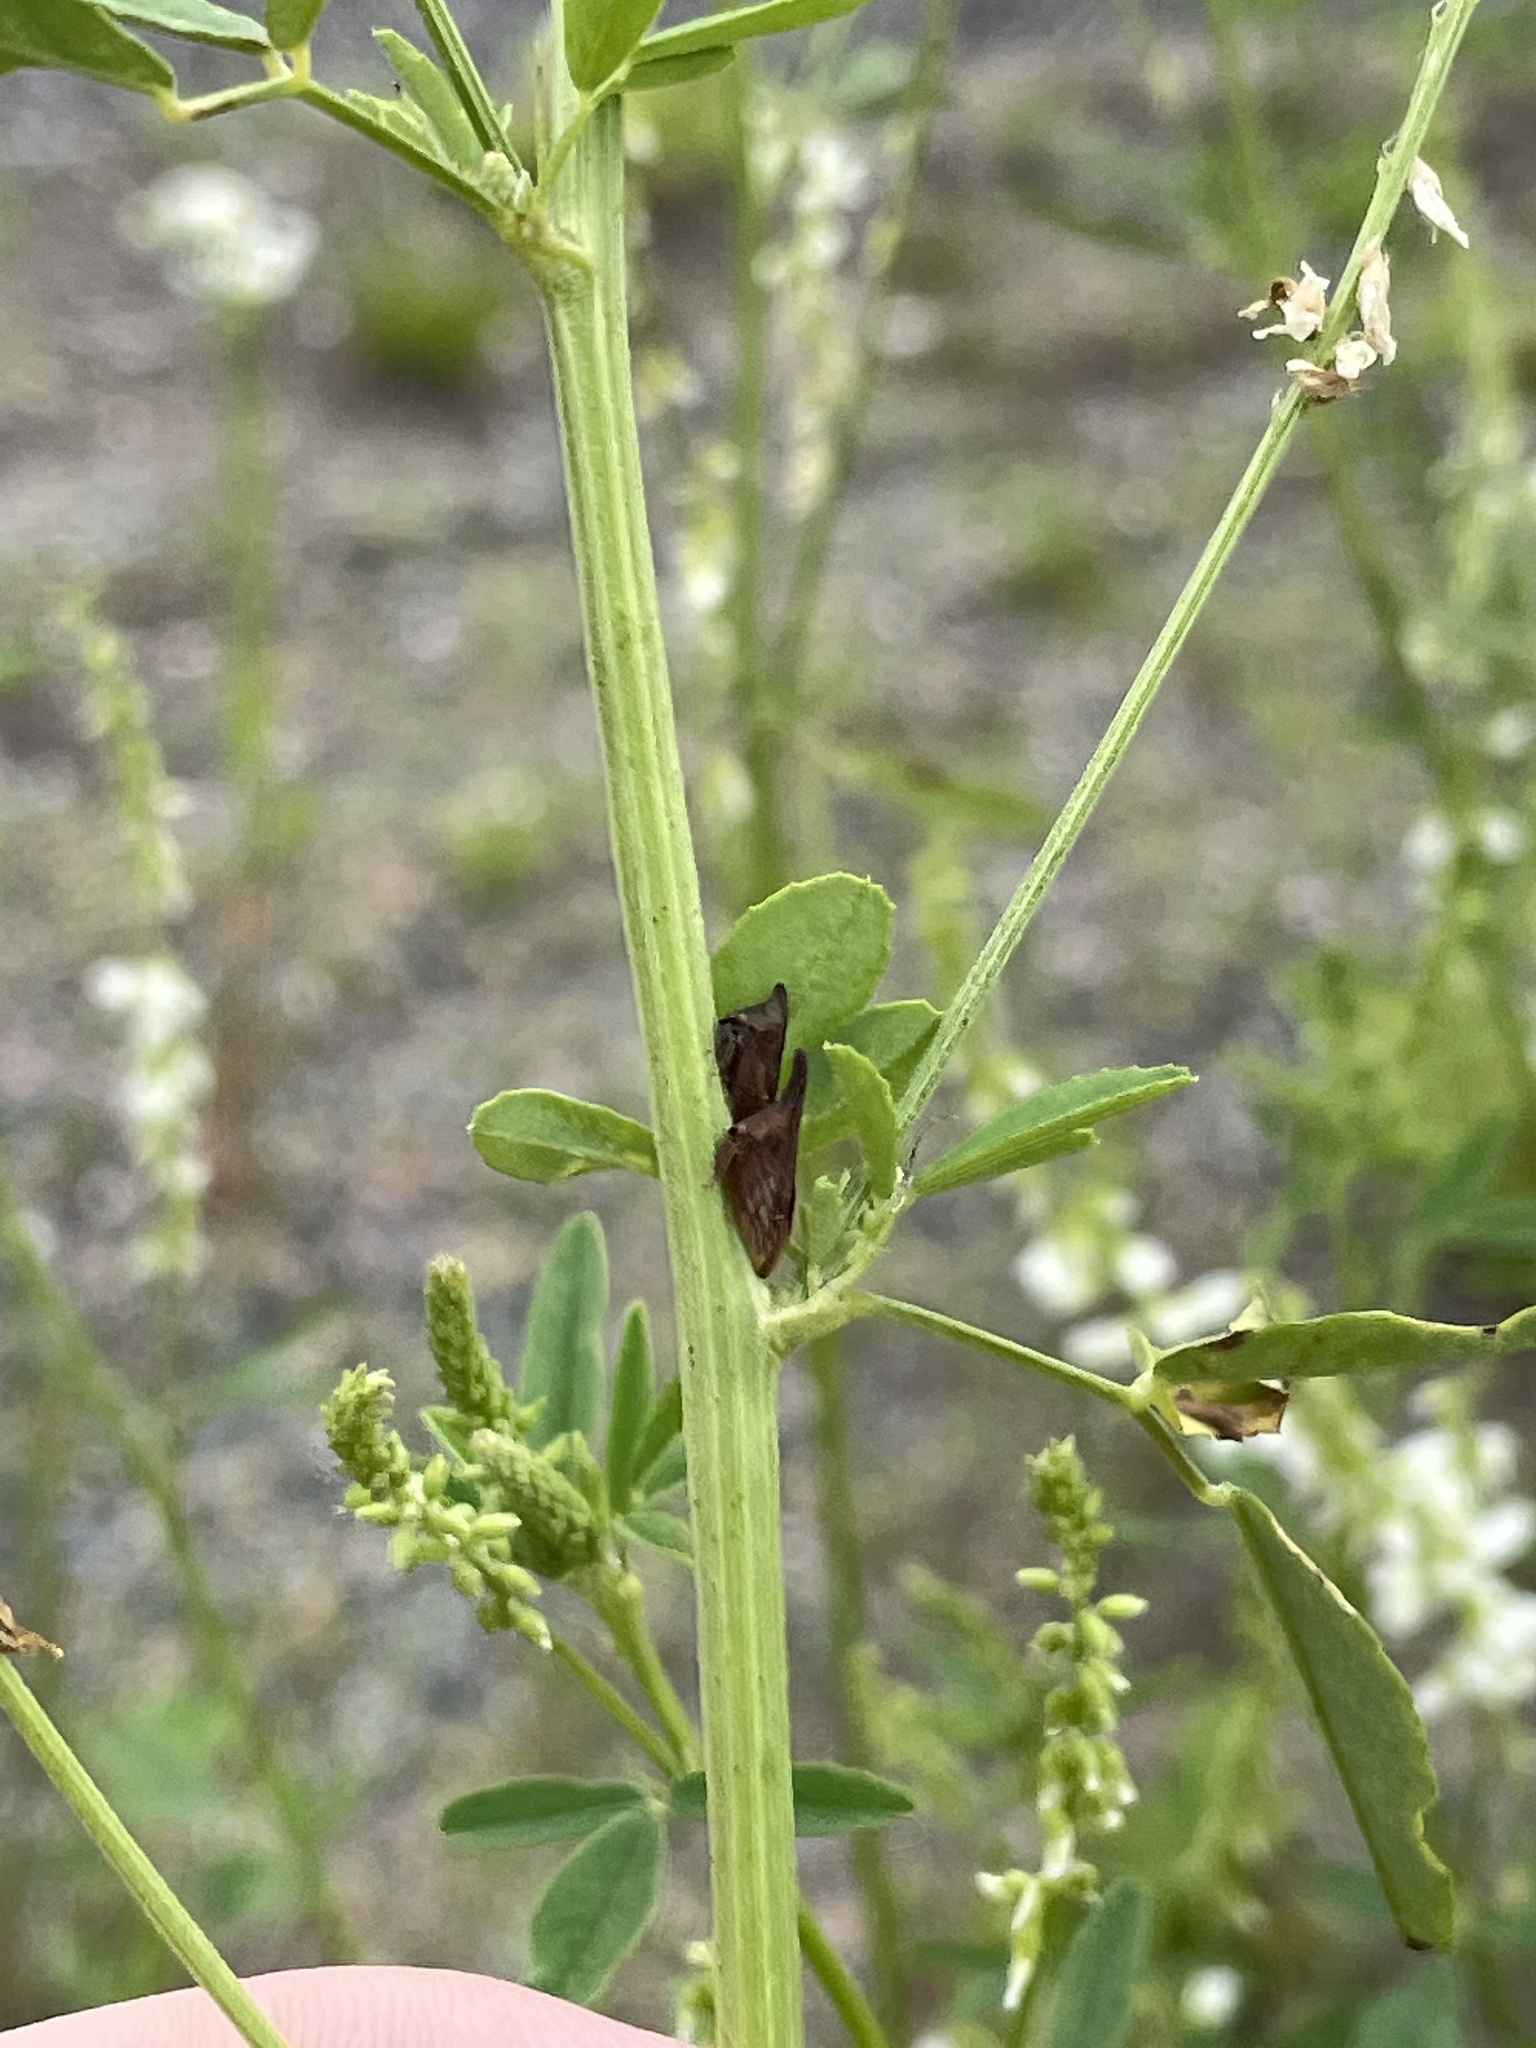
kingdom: Animalia
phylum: Arthropoda
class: Insecta
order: Hemiptera
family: Membracidae
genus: Enchenopa
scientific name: Enchenopa latipes
